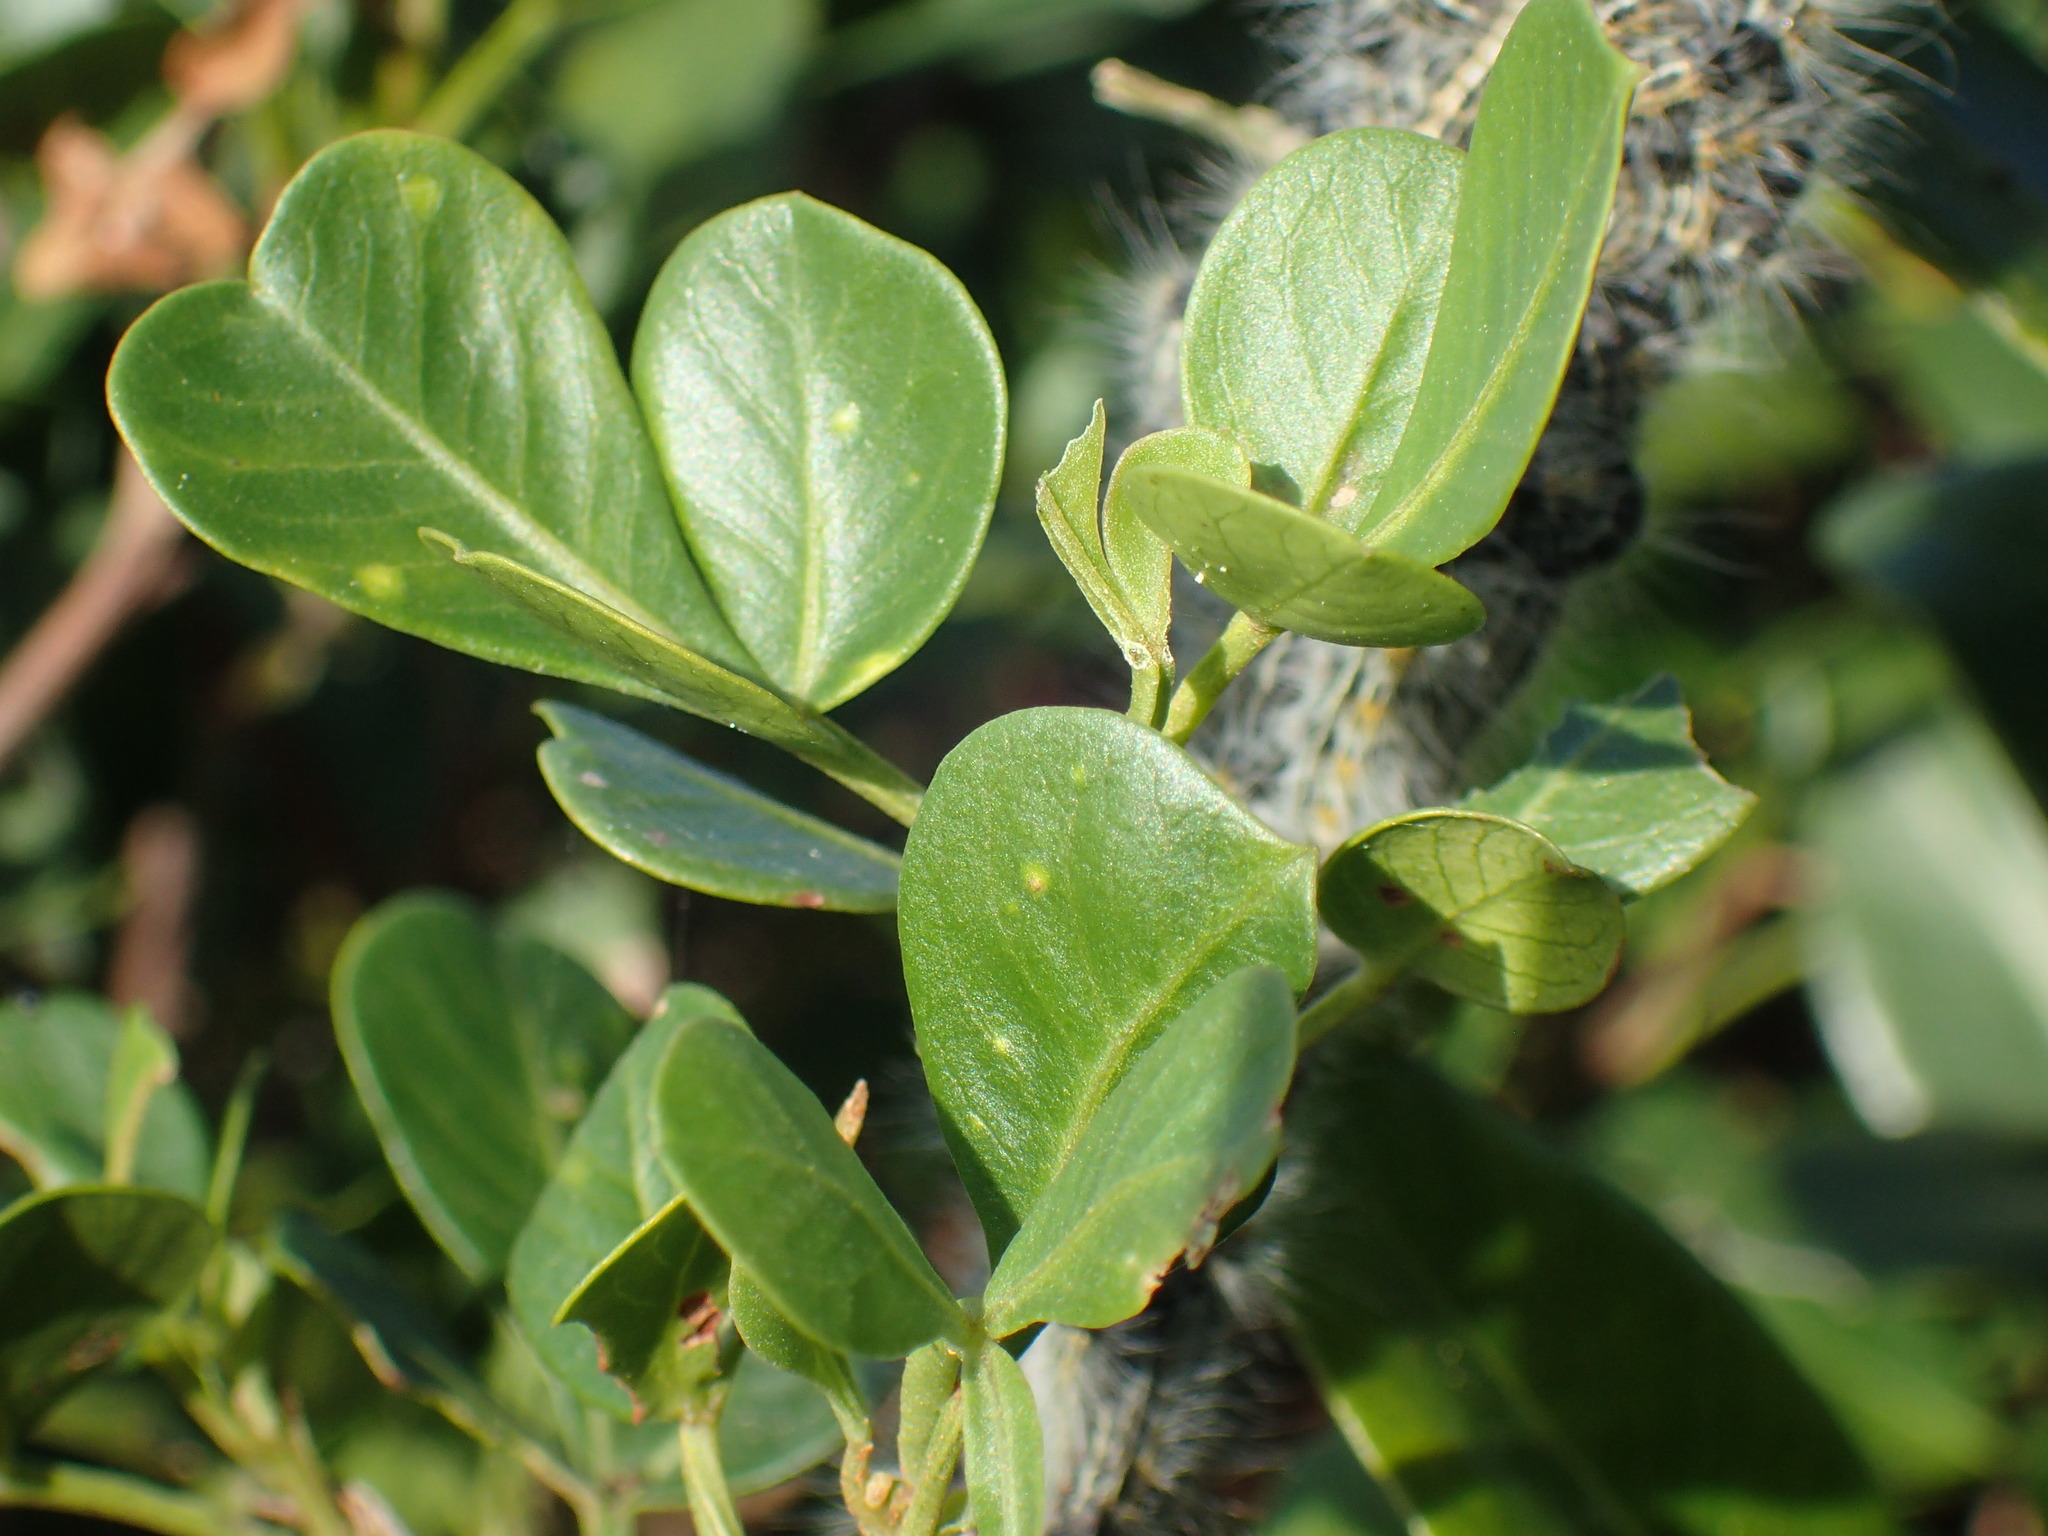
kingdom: Plantae
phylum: Tracheophyta
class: Magnoliopsida
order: Sapindales
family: Anacardiaceae
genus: Searsia
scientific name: Searsia glauca
